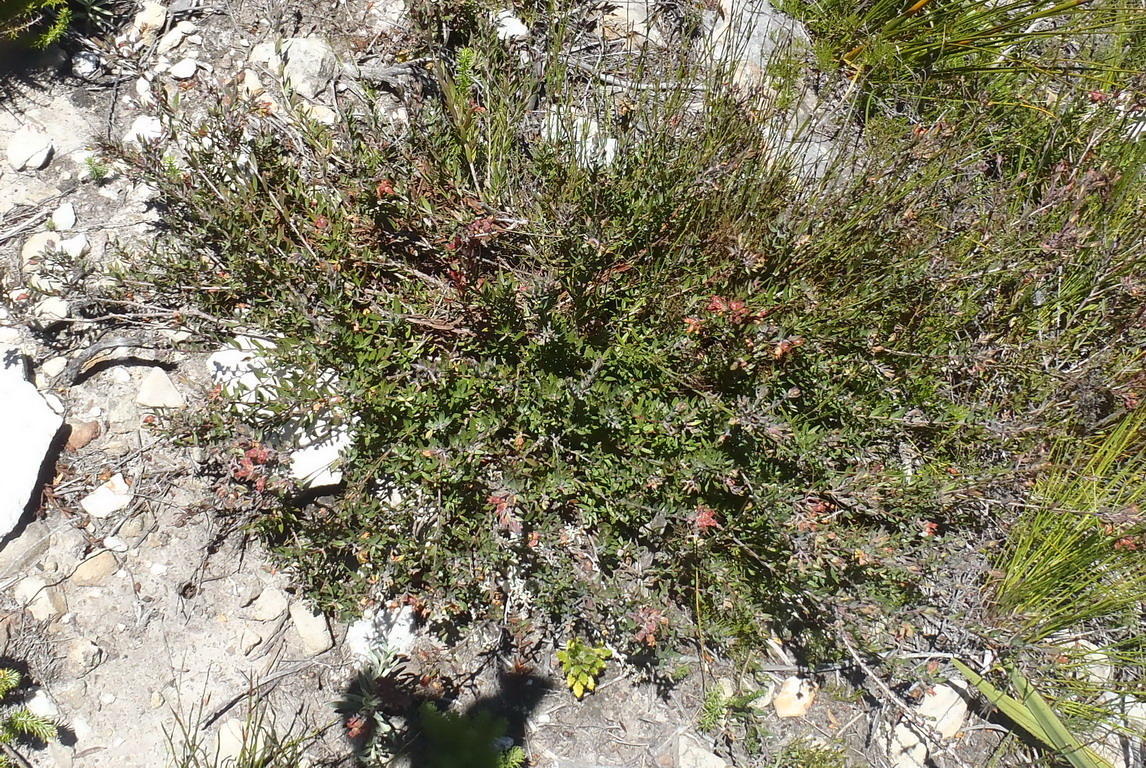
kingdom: Plantae
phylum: Tracheophyta
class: Magnoliopsida
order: Myrtales
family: Penaeaceae
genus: Penaea
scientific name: Penaea acutifolia
